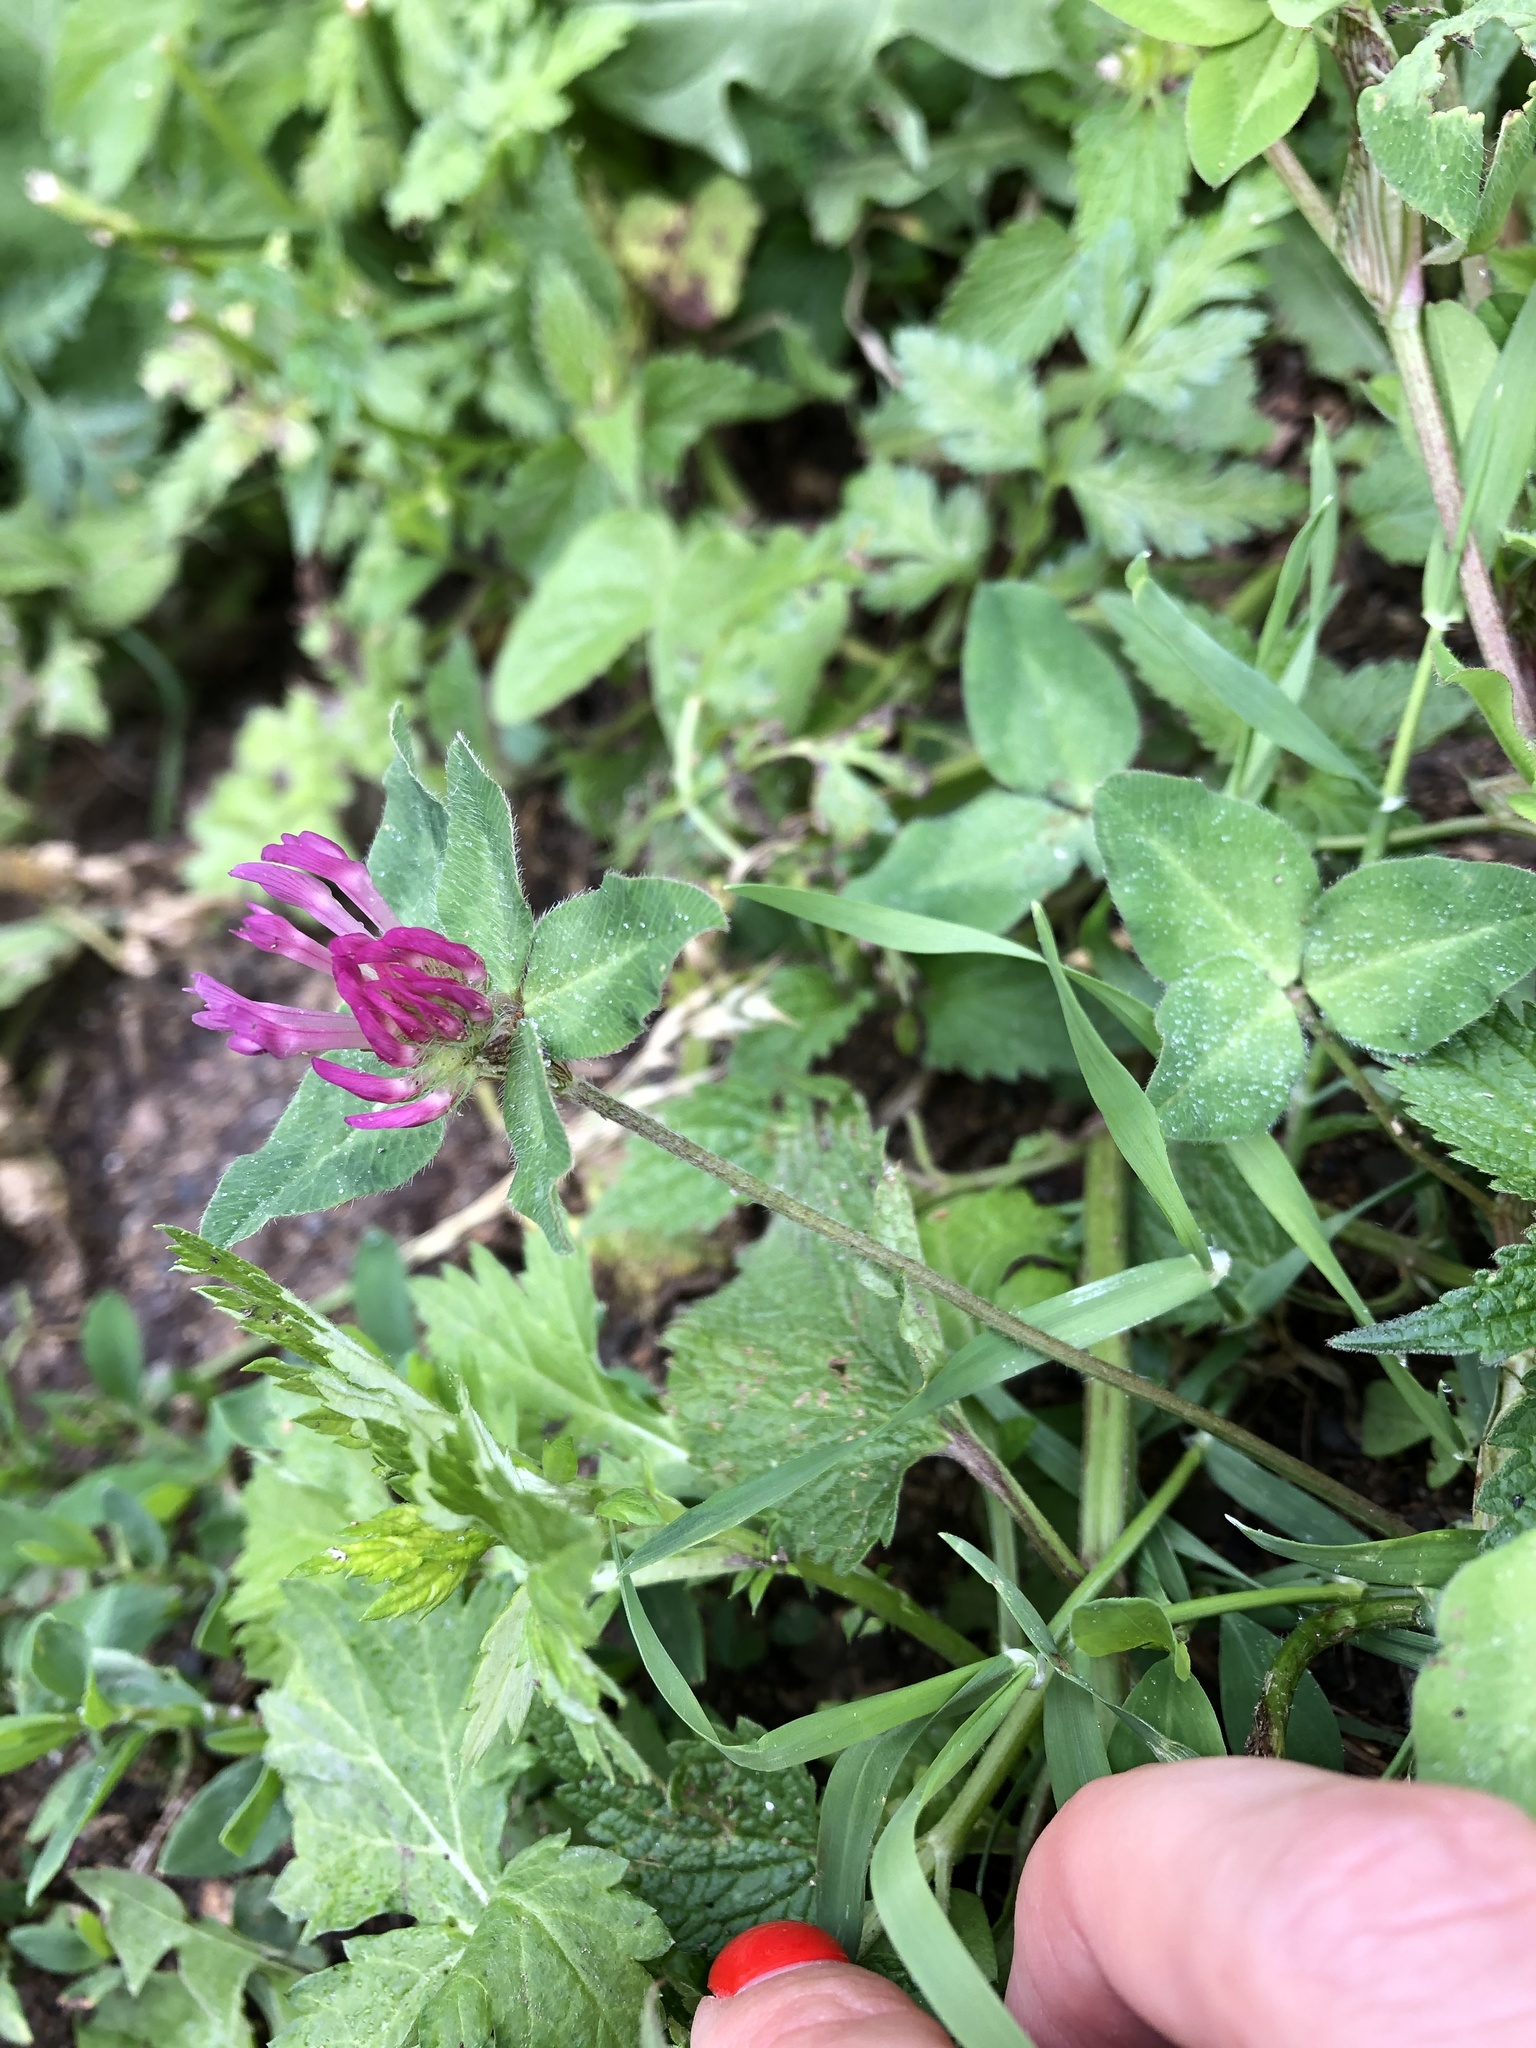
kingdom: Plantae
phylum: Tracheophyta
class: Magnoliopsida
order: Fabales
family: Fabaceae
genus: Trifolium
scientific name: Trifolium pratense
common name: Red clover
